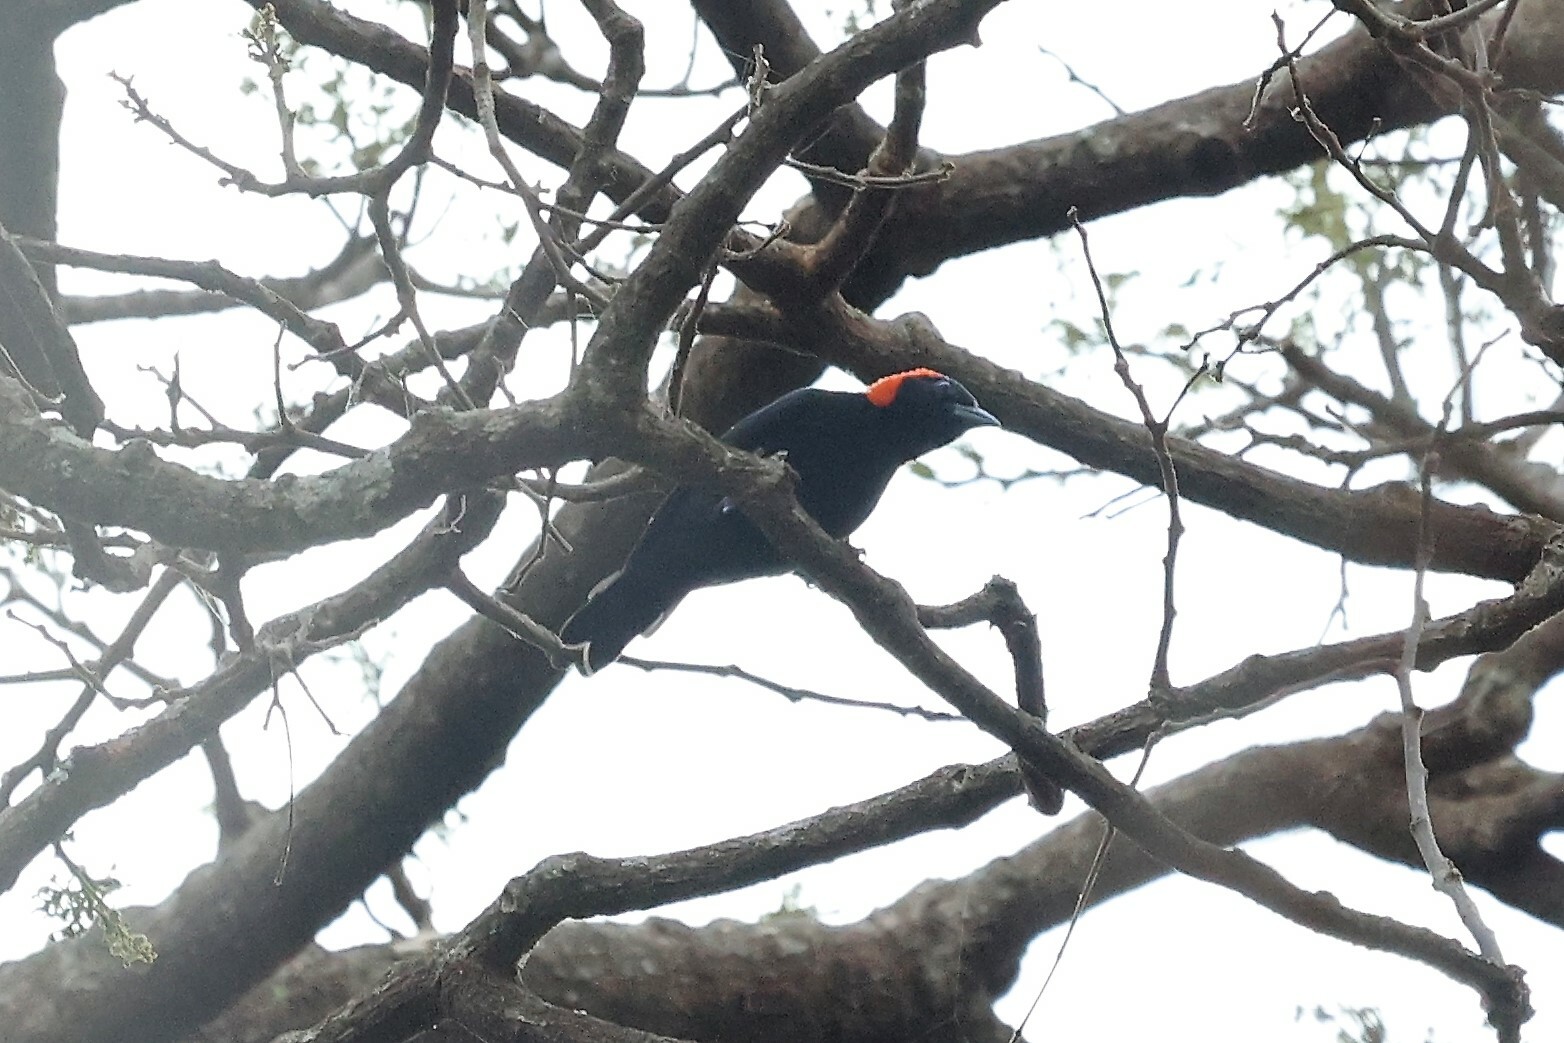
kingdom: Animalia
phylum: Chordata
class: Aves
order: Passeriformes
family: Ploceidae
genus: Malimbus
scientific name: Malimbus rubricollis
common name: Red-headed malimbe
